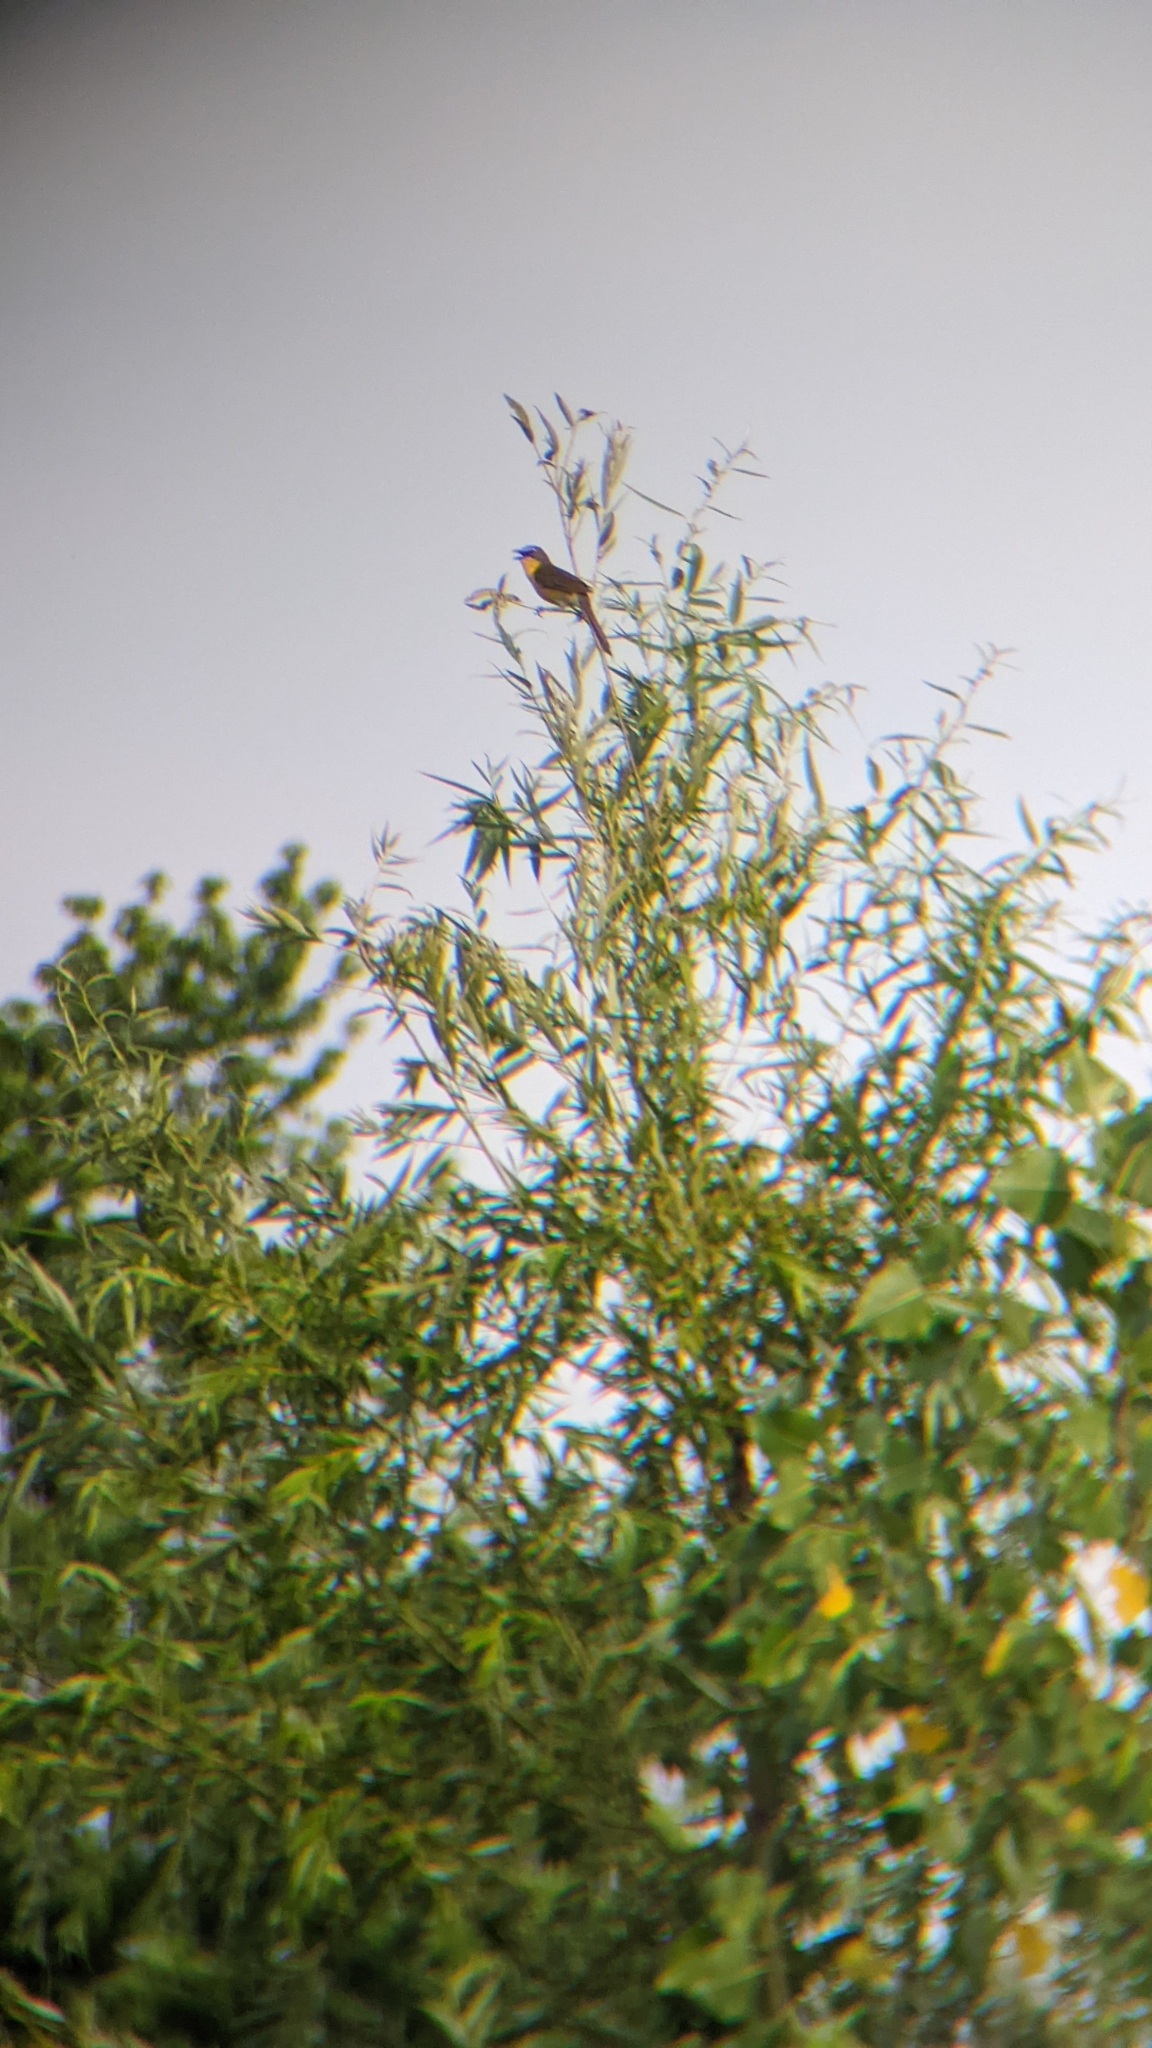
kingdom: Animalia
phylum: Chordata
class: Aves
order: Passeriformes
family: Parulidae
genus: Icteria
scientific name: Icteria virens
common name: Yellow-breasted chat
